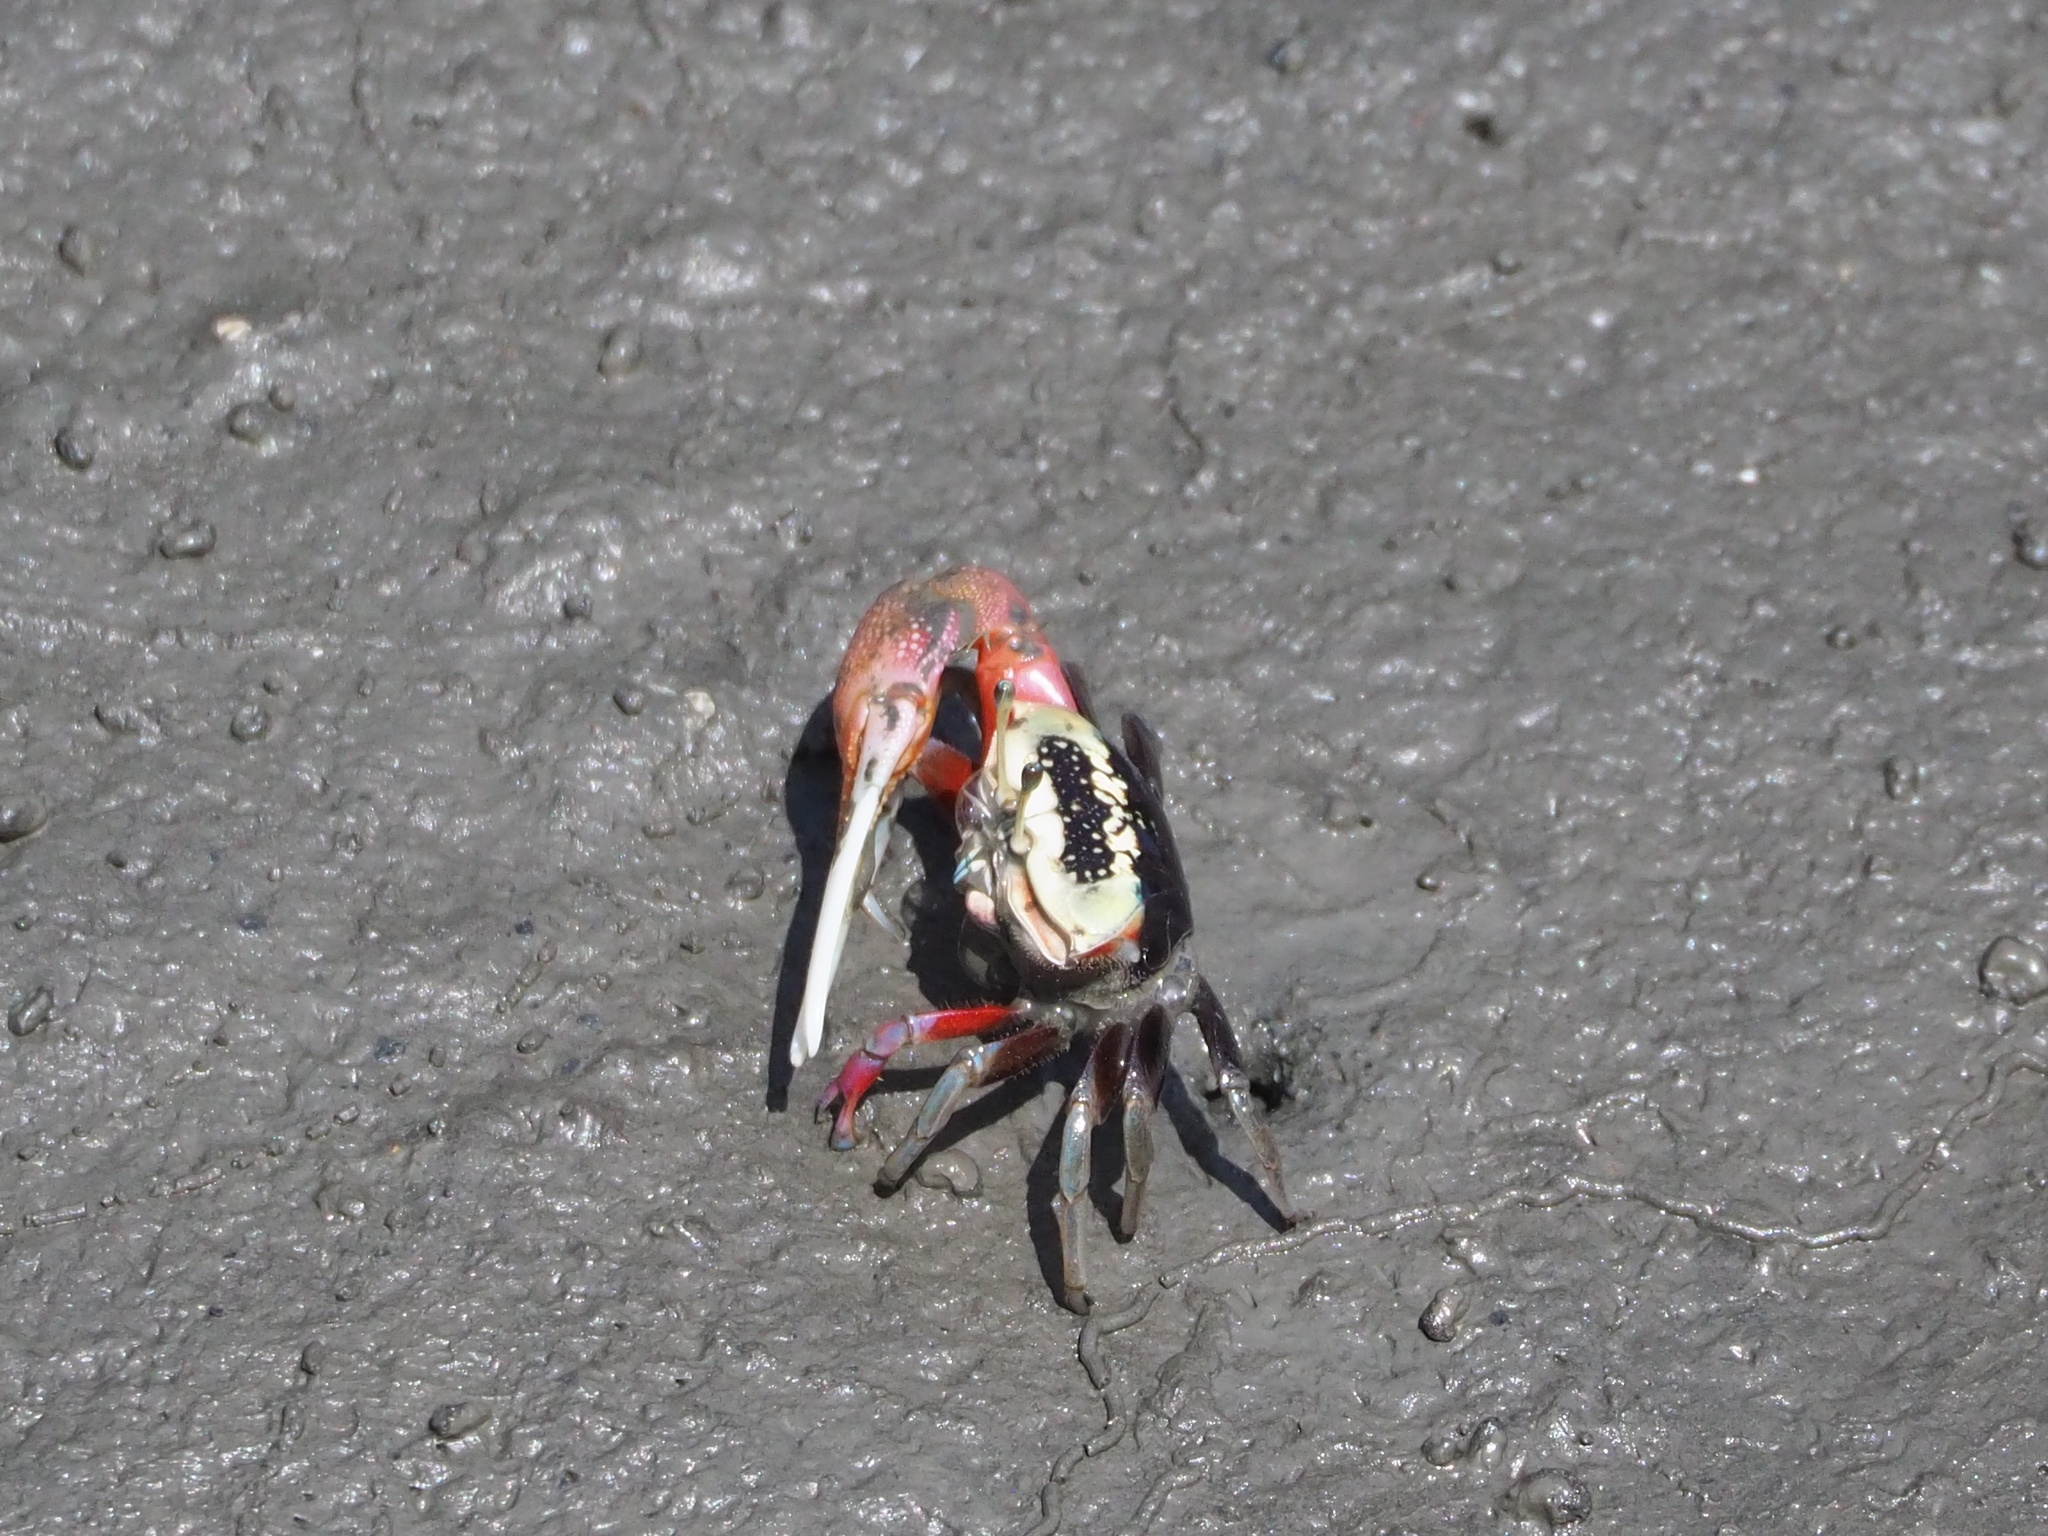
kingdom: Animalia
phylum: Arthropoda
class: Malacostraca
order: Decapoda
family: Ocypodidae
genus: Tubuca
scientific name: Tubuca arcuata
